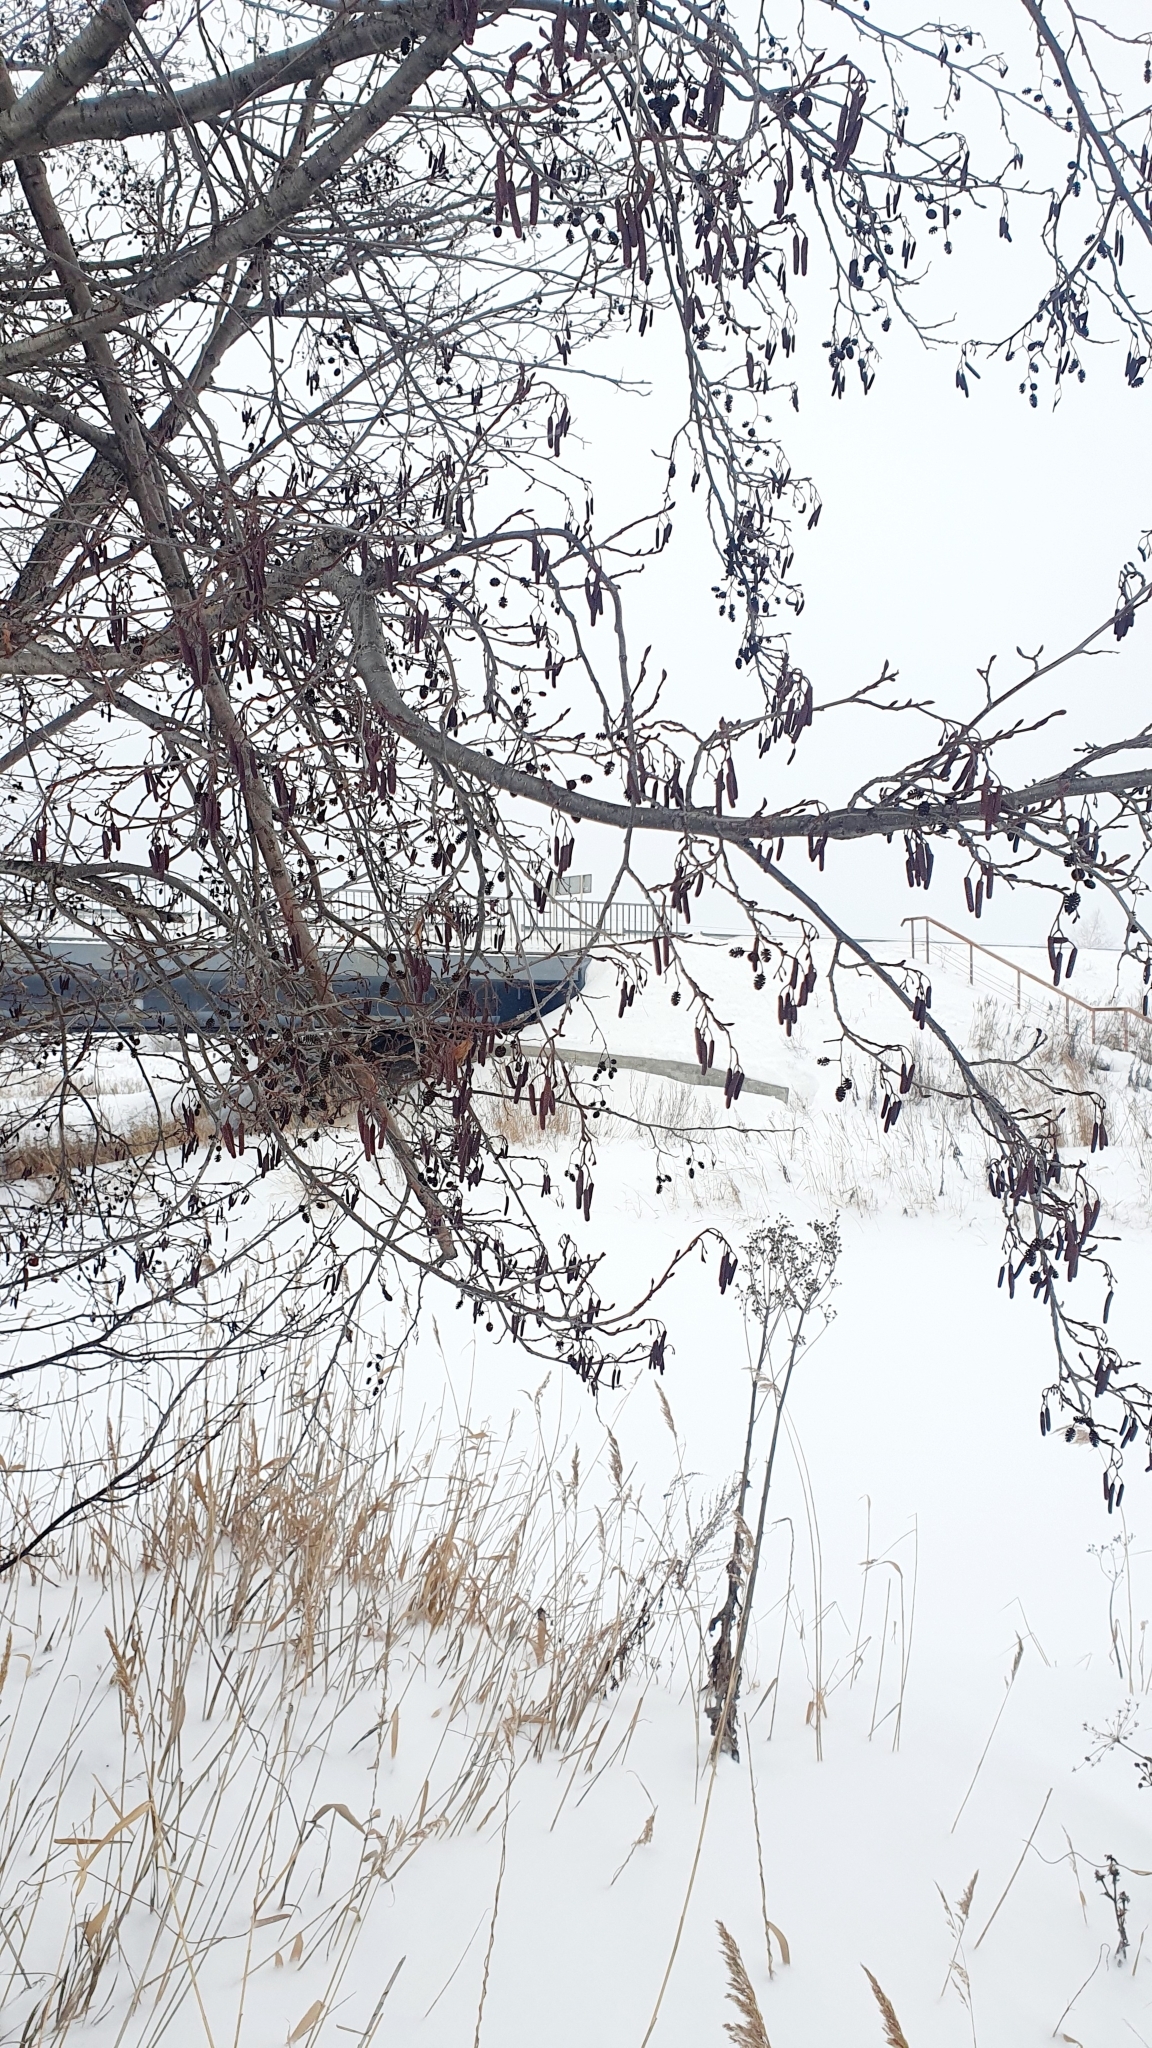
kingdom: Plantae
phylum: Tracheophyta
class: Magnoliopsida
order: Fagales
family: Betulaceae
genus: Alnus
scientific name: Alnus glutinosa
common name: Black alder
